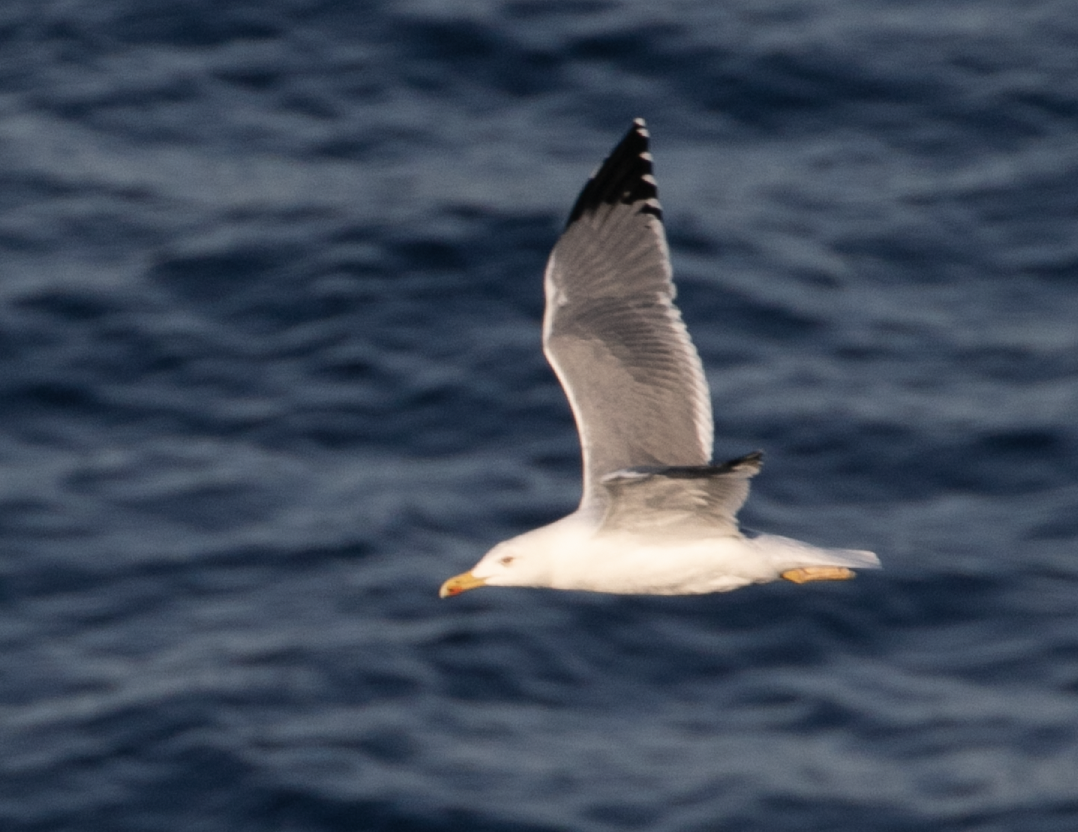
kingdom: Animalia
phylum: Chordata
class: Aves
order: Charadriiformes
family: Laridae
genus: Larus
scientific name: Larus michahellis
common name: Yellow-legged gull
